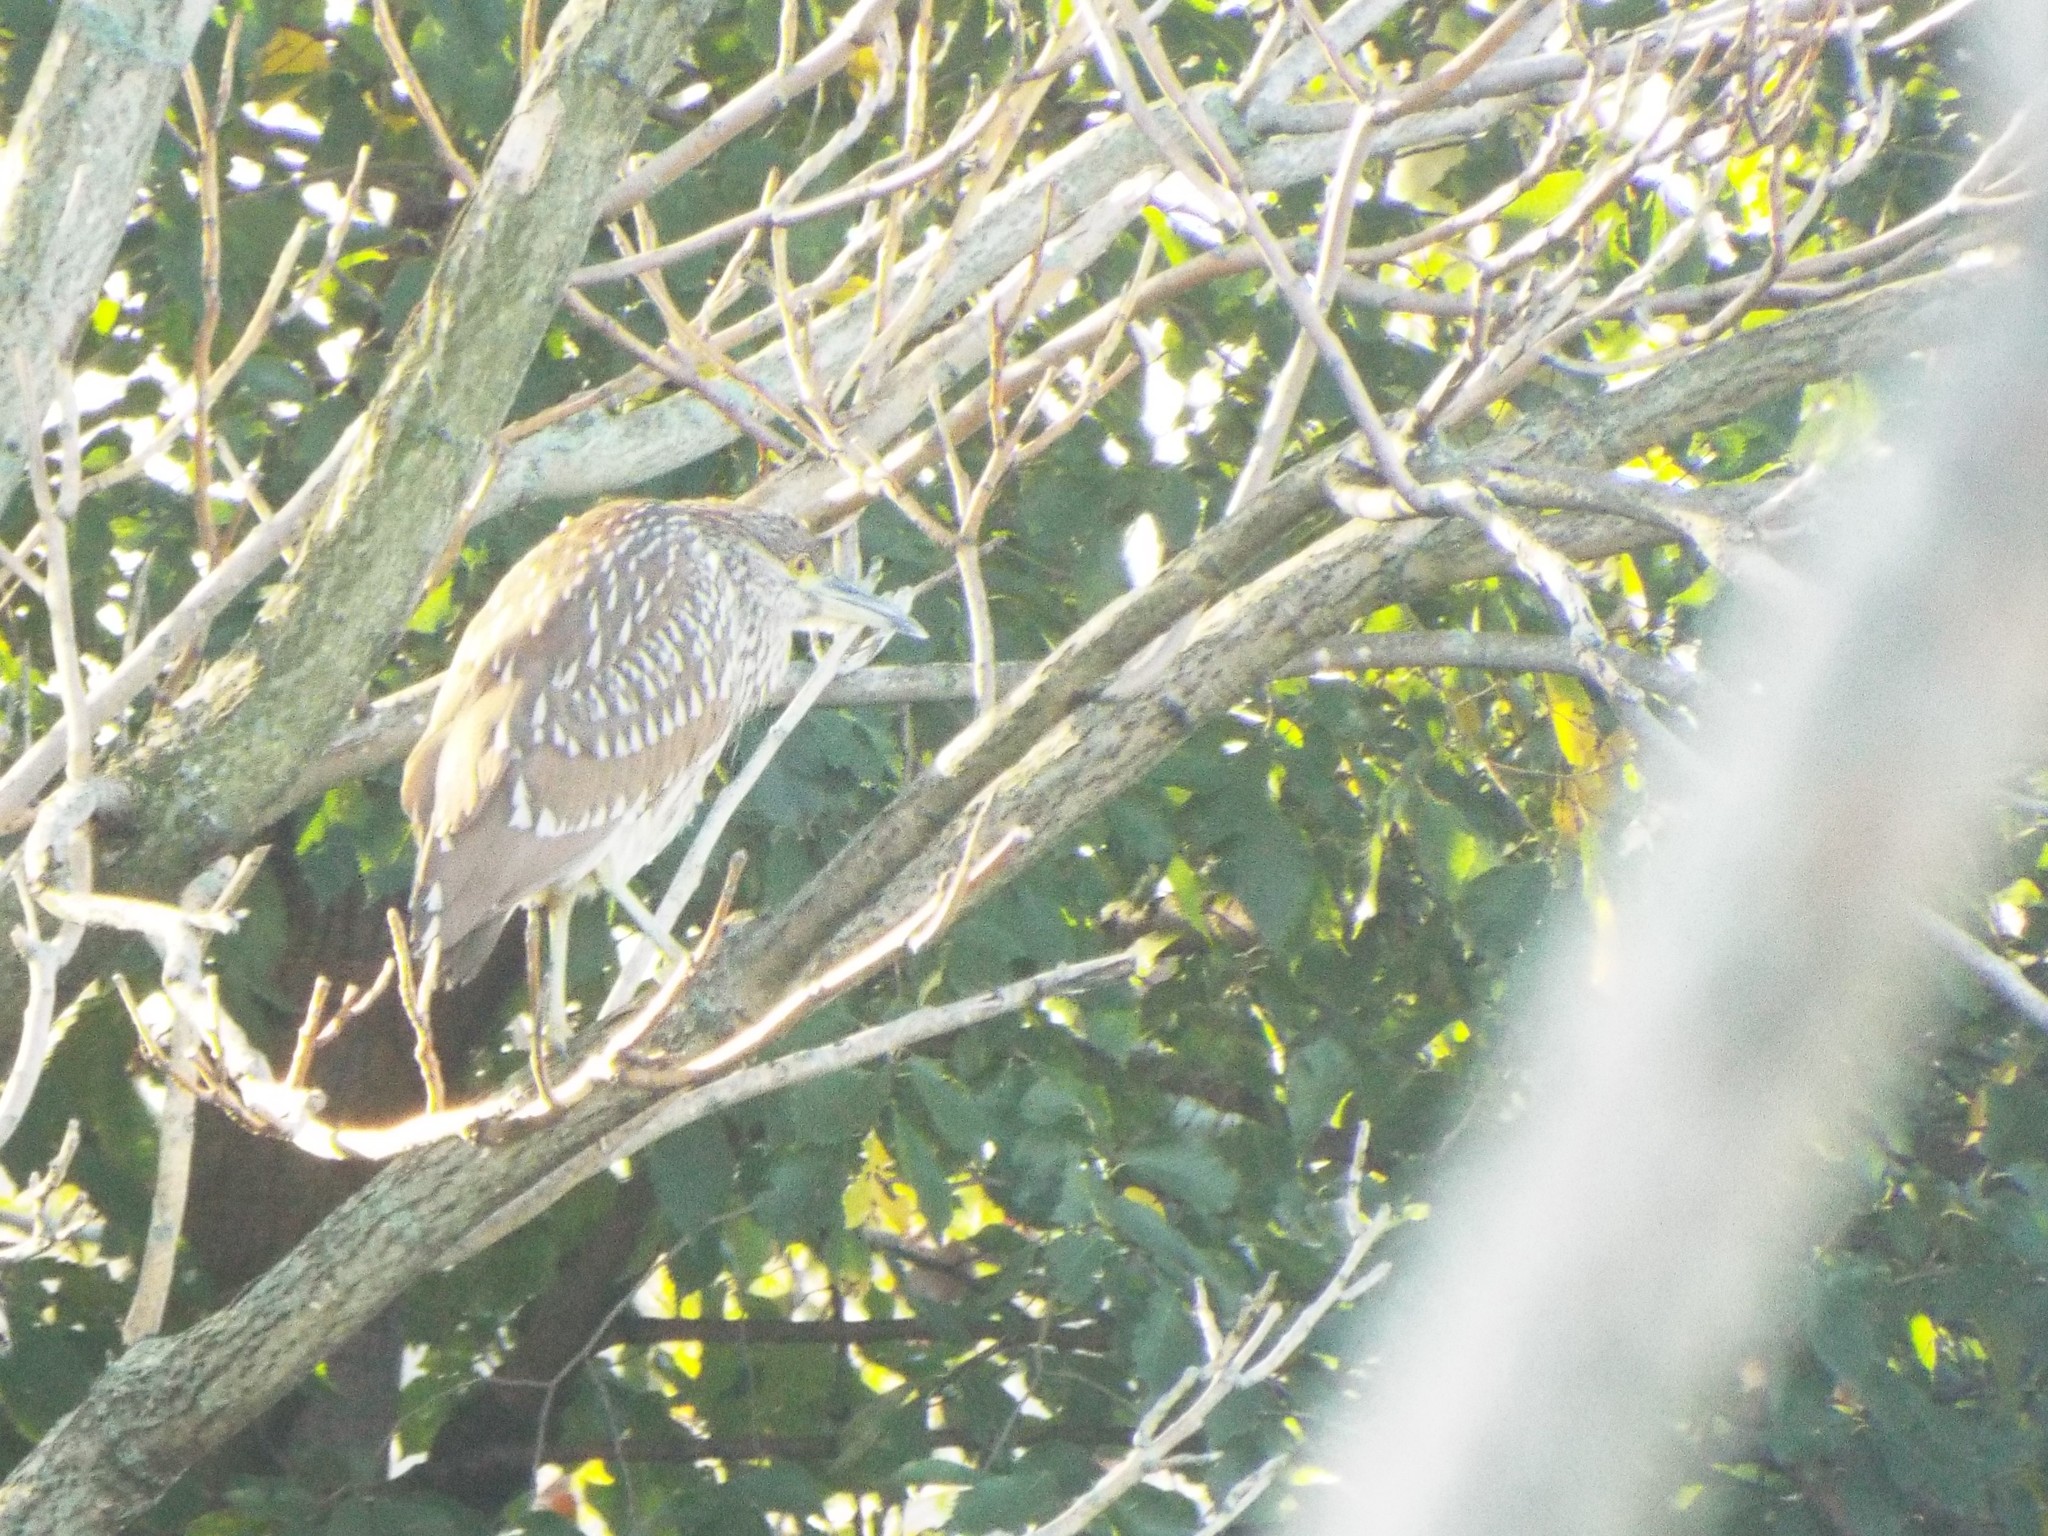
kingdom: Animalia
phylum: Chordata
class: Aves
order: Pelecaniformes
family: Ardeidae
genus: Nycticorax
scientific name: Nycticorax nycticorax
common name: Black-crowned night heron
